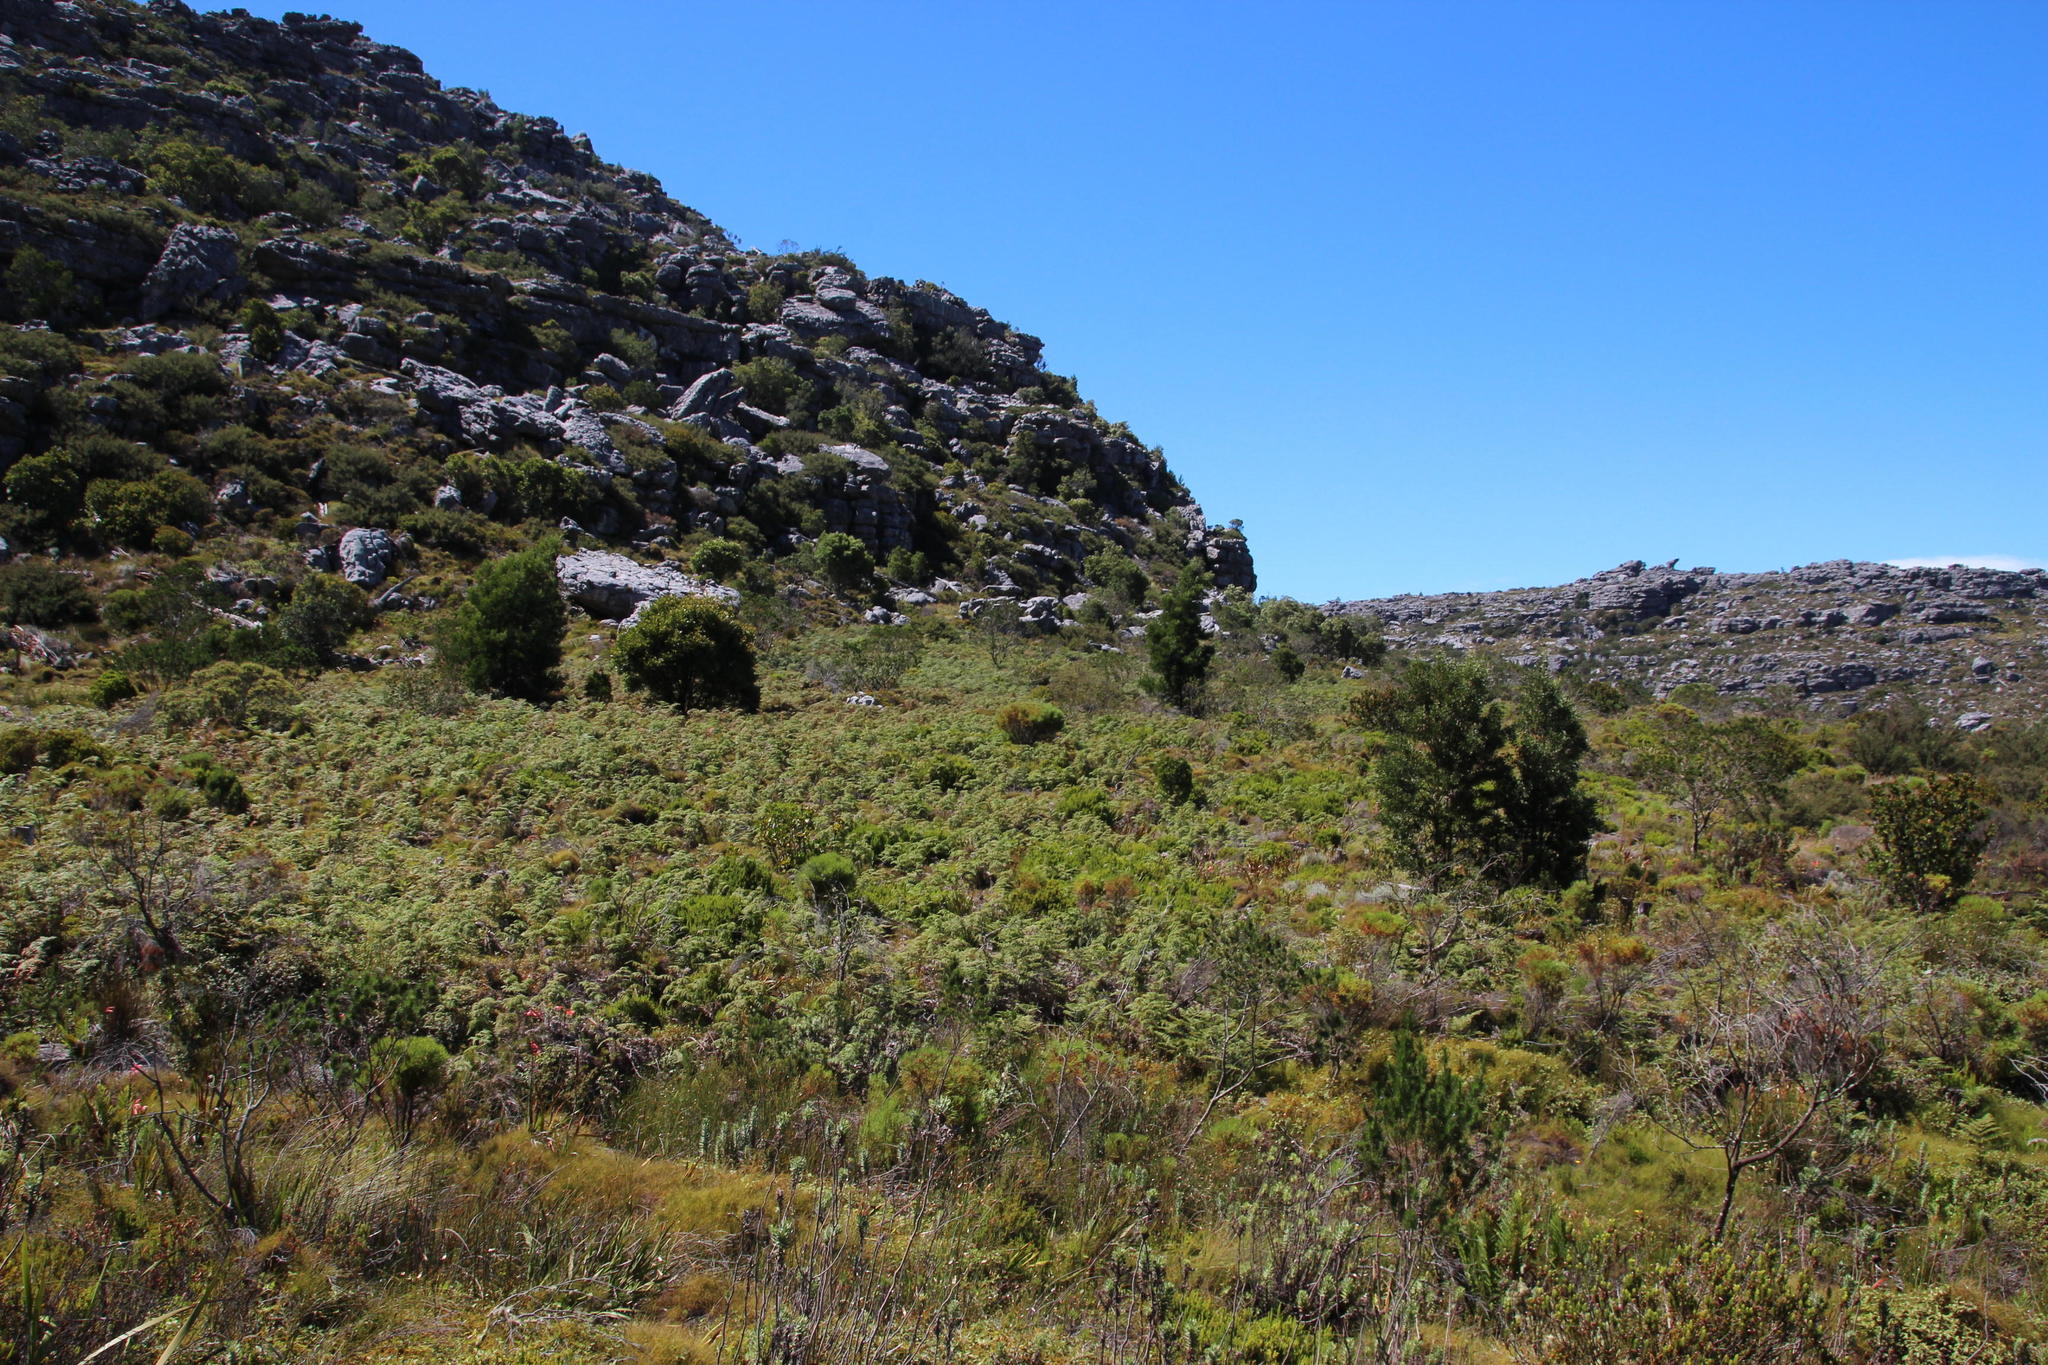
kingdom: Plantae
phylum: Tracheophyta
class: Magnoliopsida
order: Fabales
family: Fabaceae
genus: Acacia
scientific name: Acacia melanoxylon
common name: Blackwood
